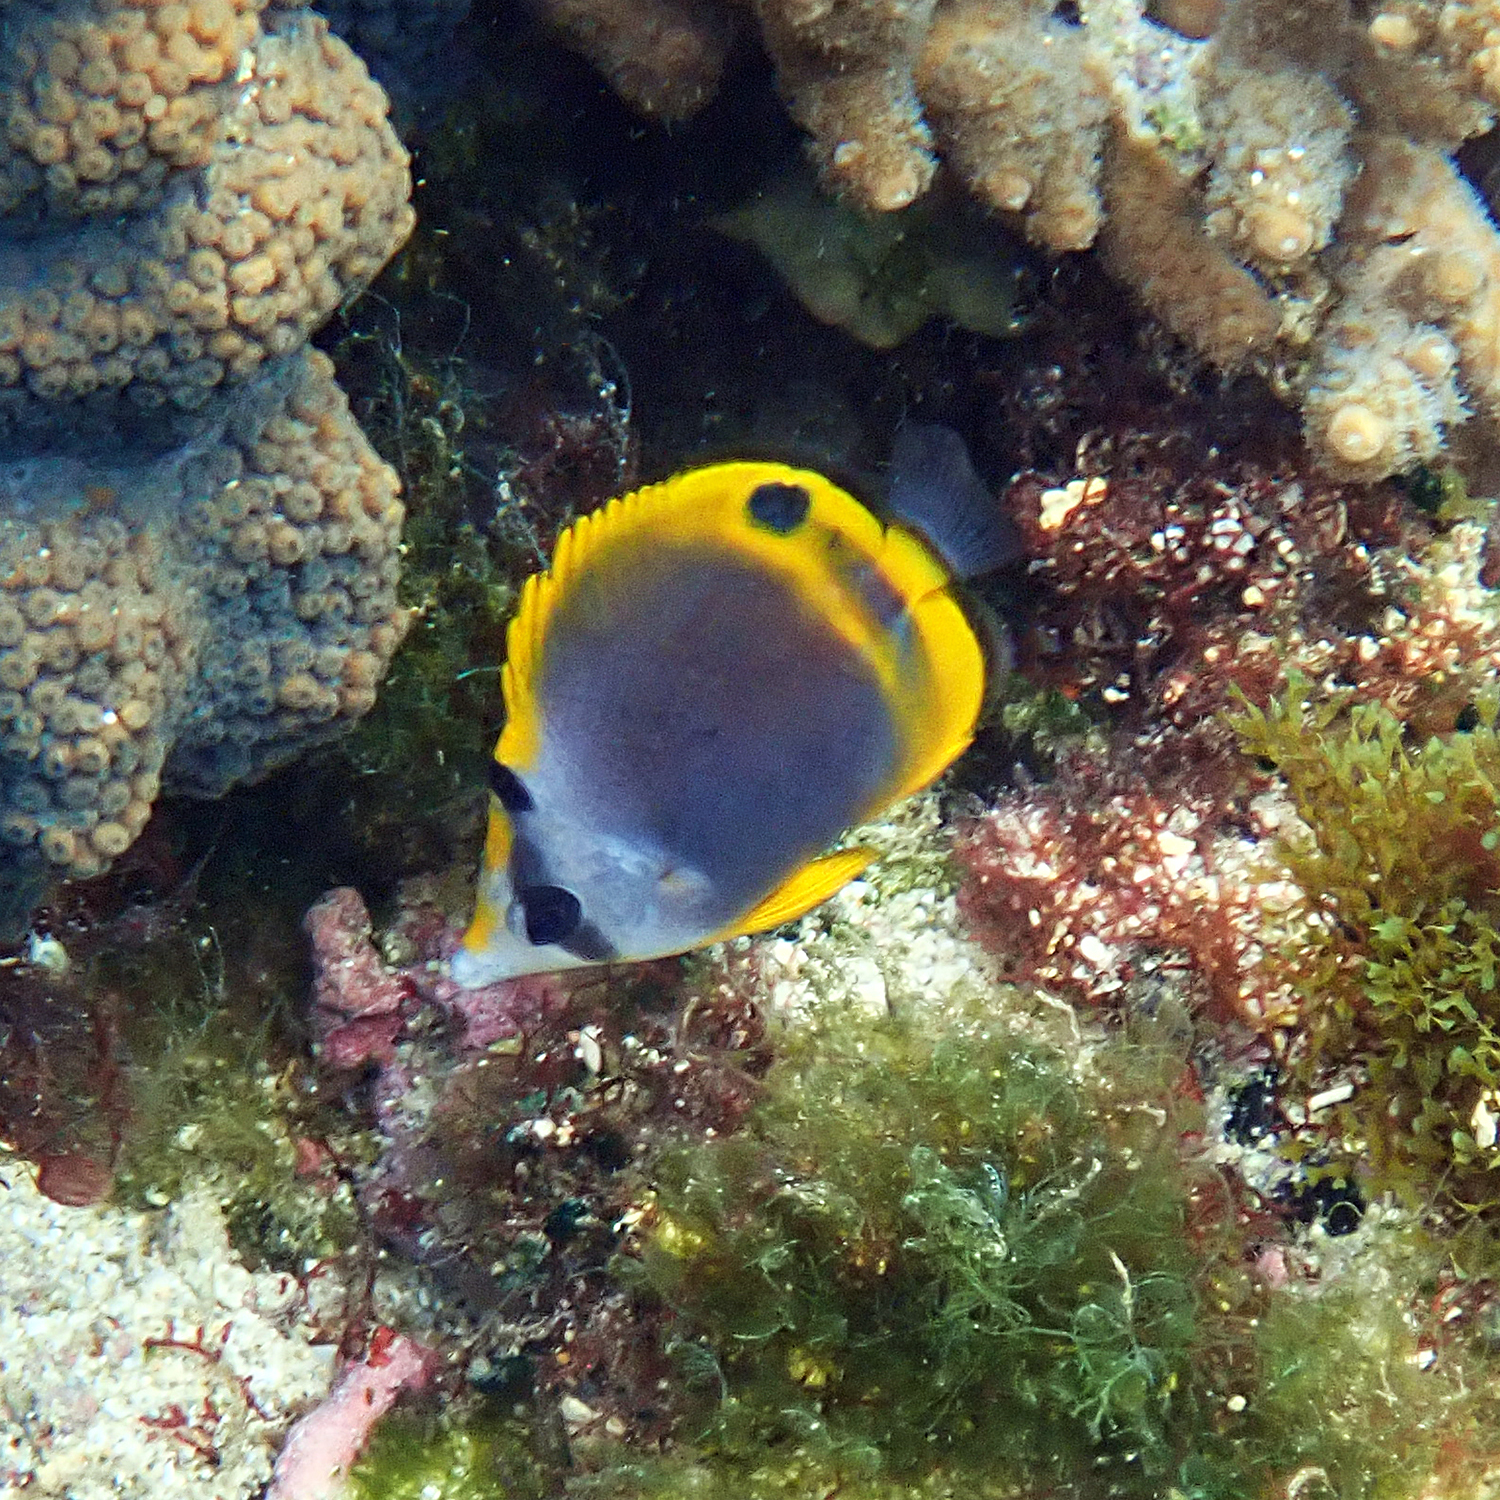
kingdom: Animalia
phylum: Chordata
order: Perciformes
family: Chaetodontidae
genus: Chaetodon
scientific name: Chaetodon flavirostris
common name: Black butterflyfish
